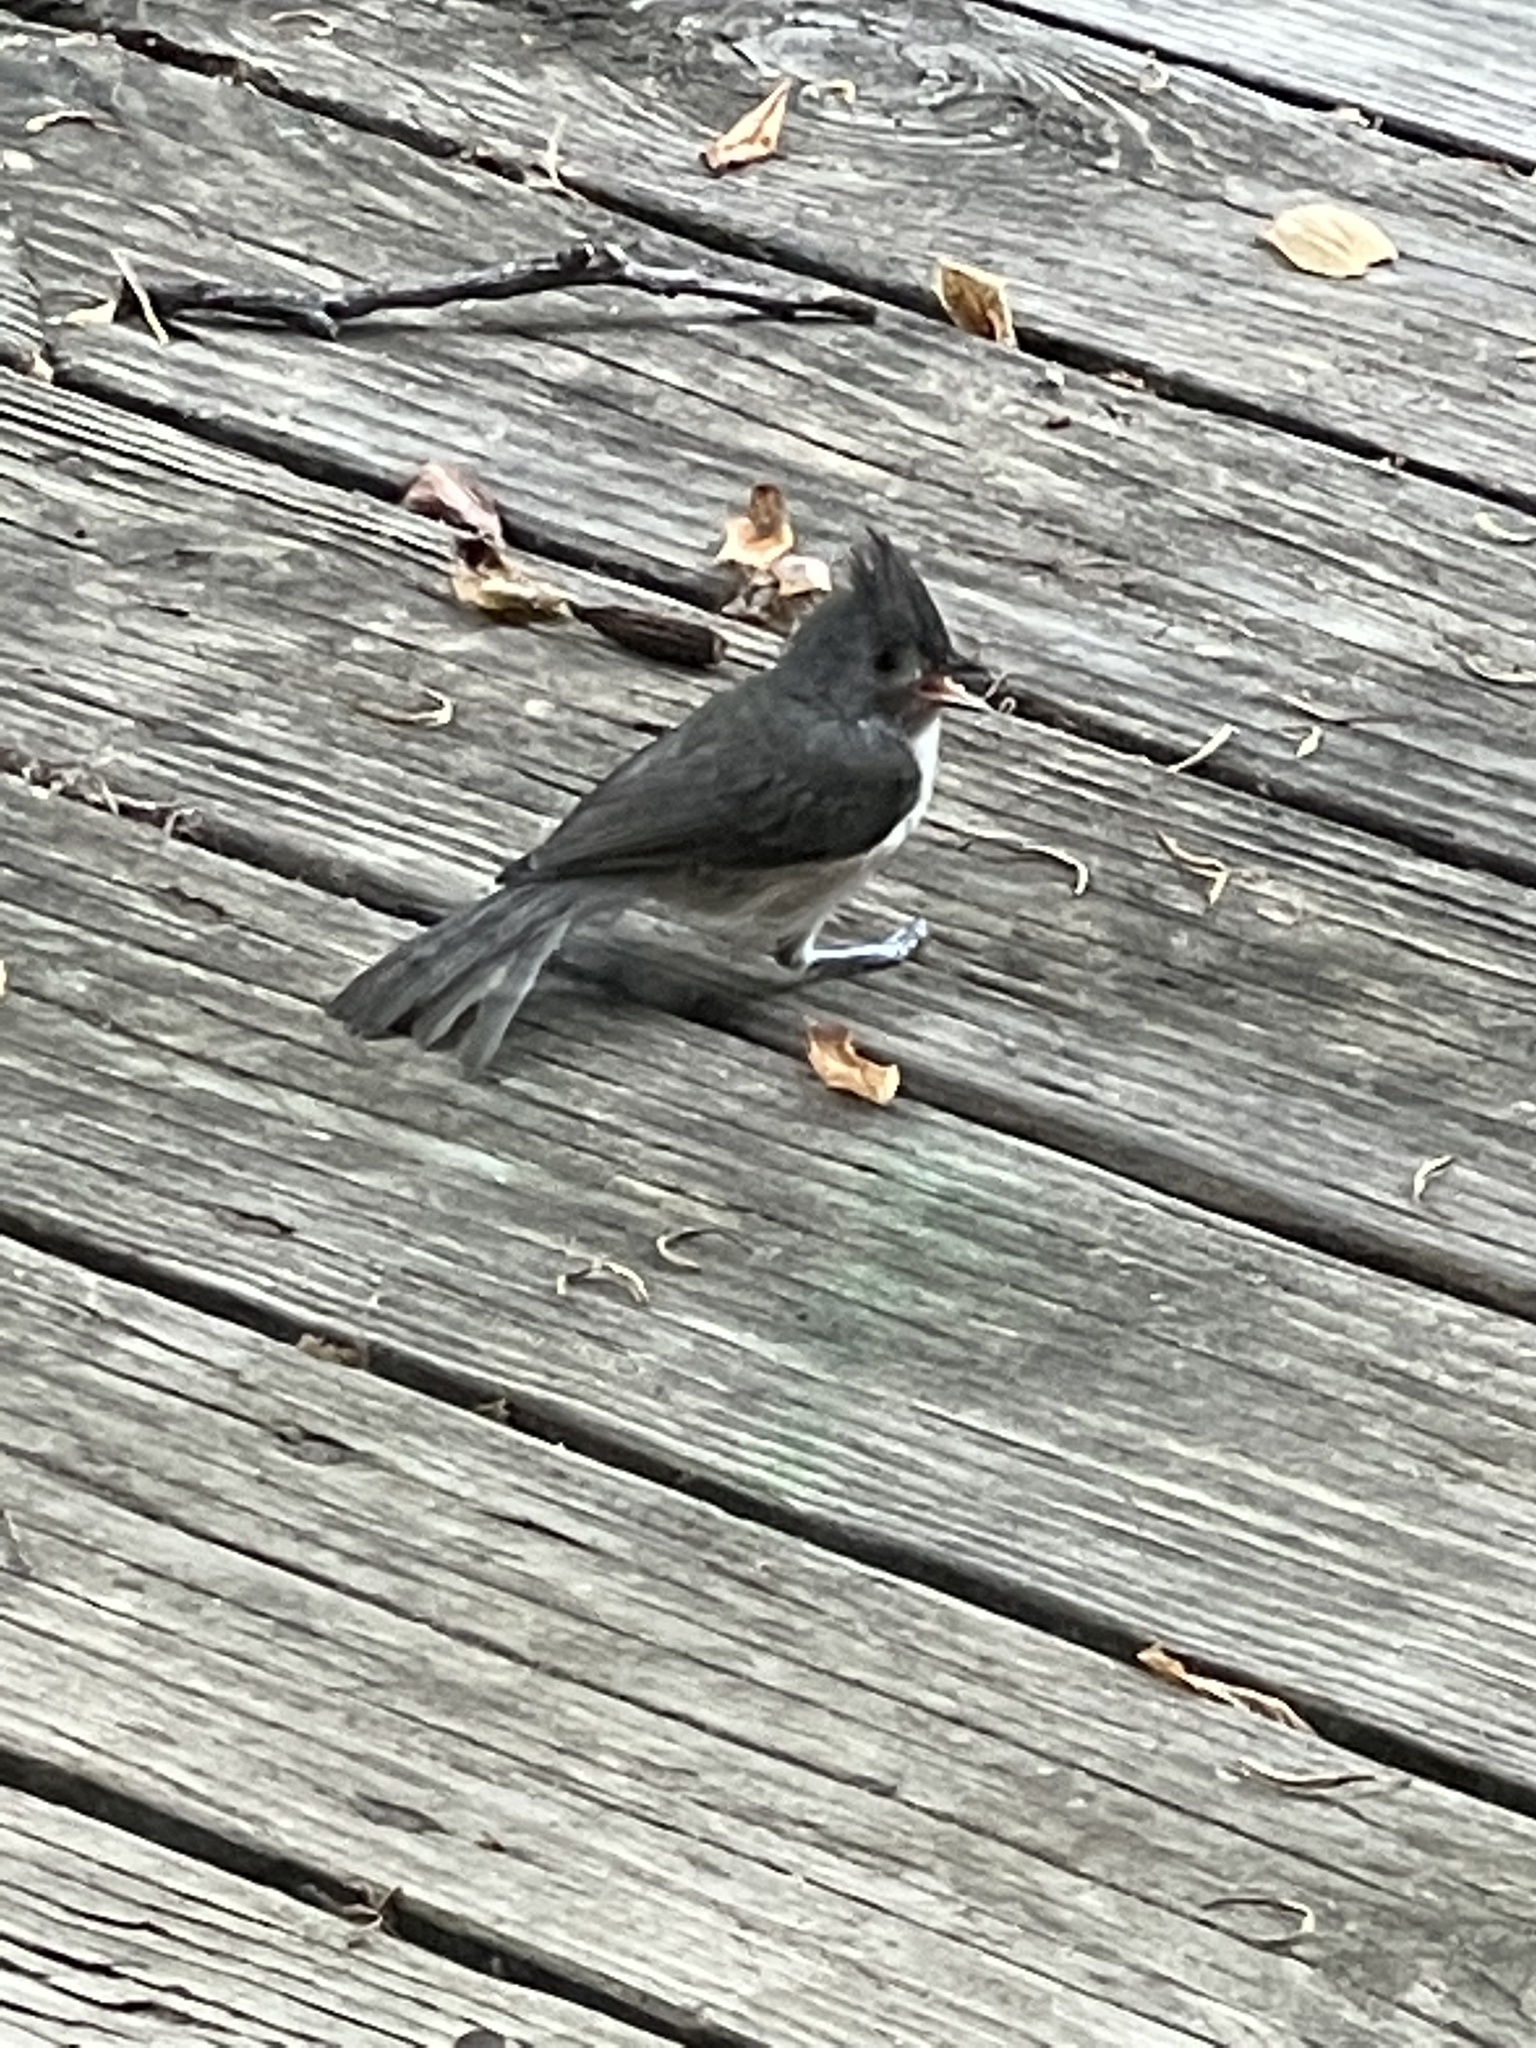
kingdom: Animalia
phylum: Chordata
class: Aves
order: Passeriformes
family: Paridae
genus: Baeolophus
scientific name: Baeolophus bicolor
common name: Tufted titmouse
